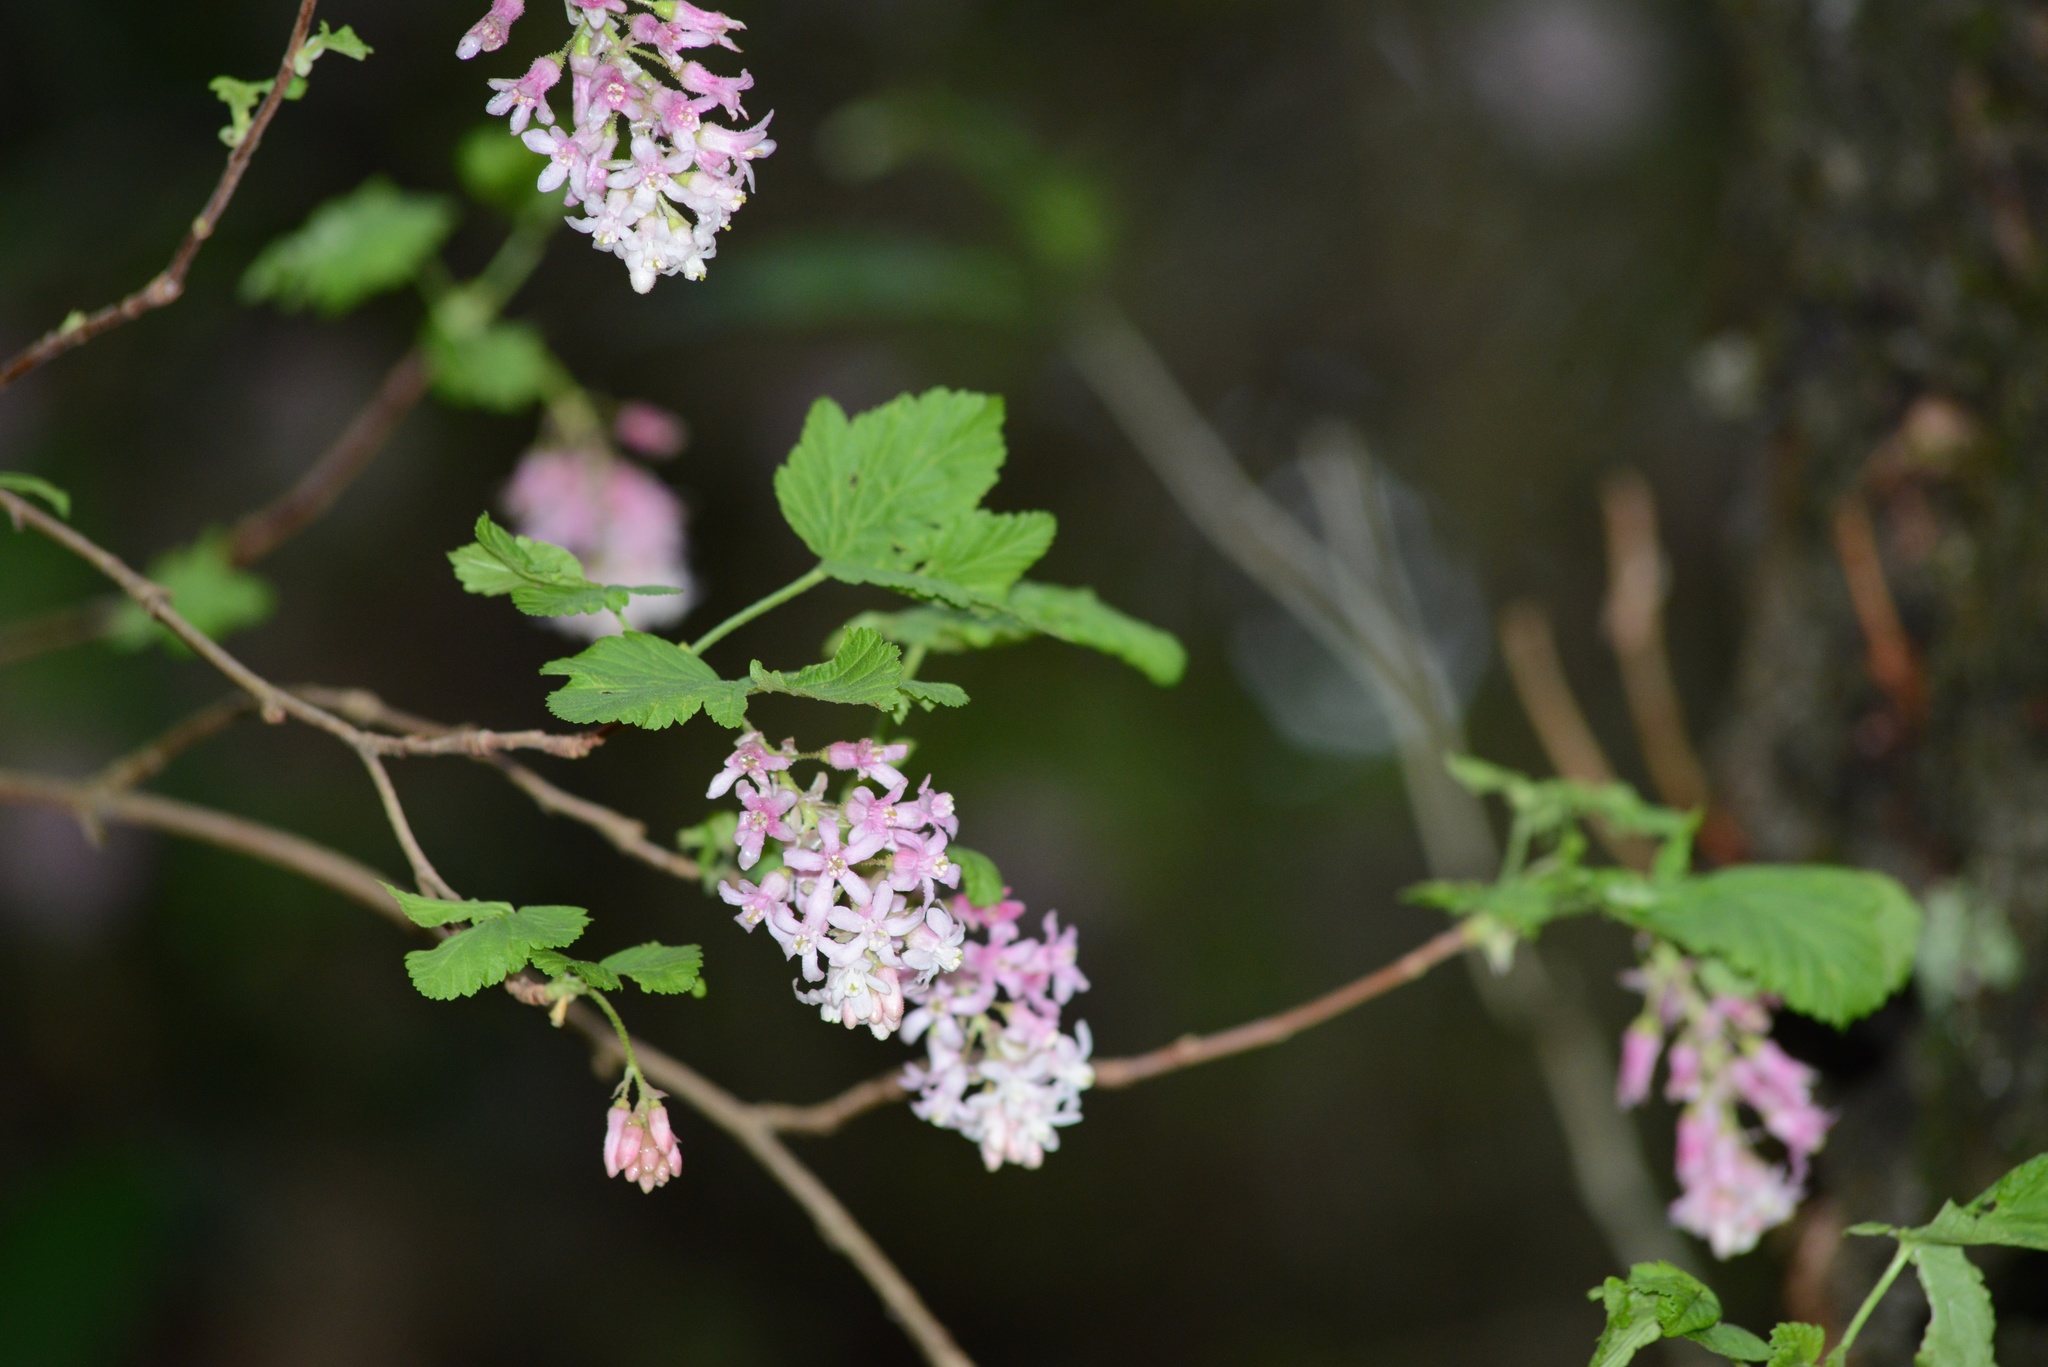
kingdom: Plantae
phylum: Tracheophyta
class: Magnoliopsida
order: Saxifragales
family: Grossulariaceae
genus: Ribes
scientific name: Ribes sanguineum
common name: Flowering currant
